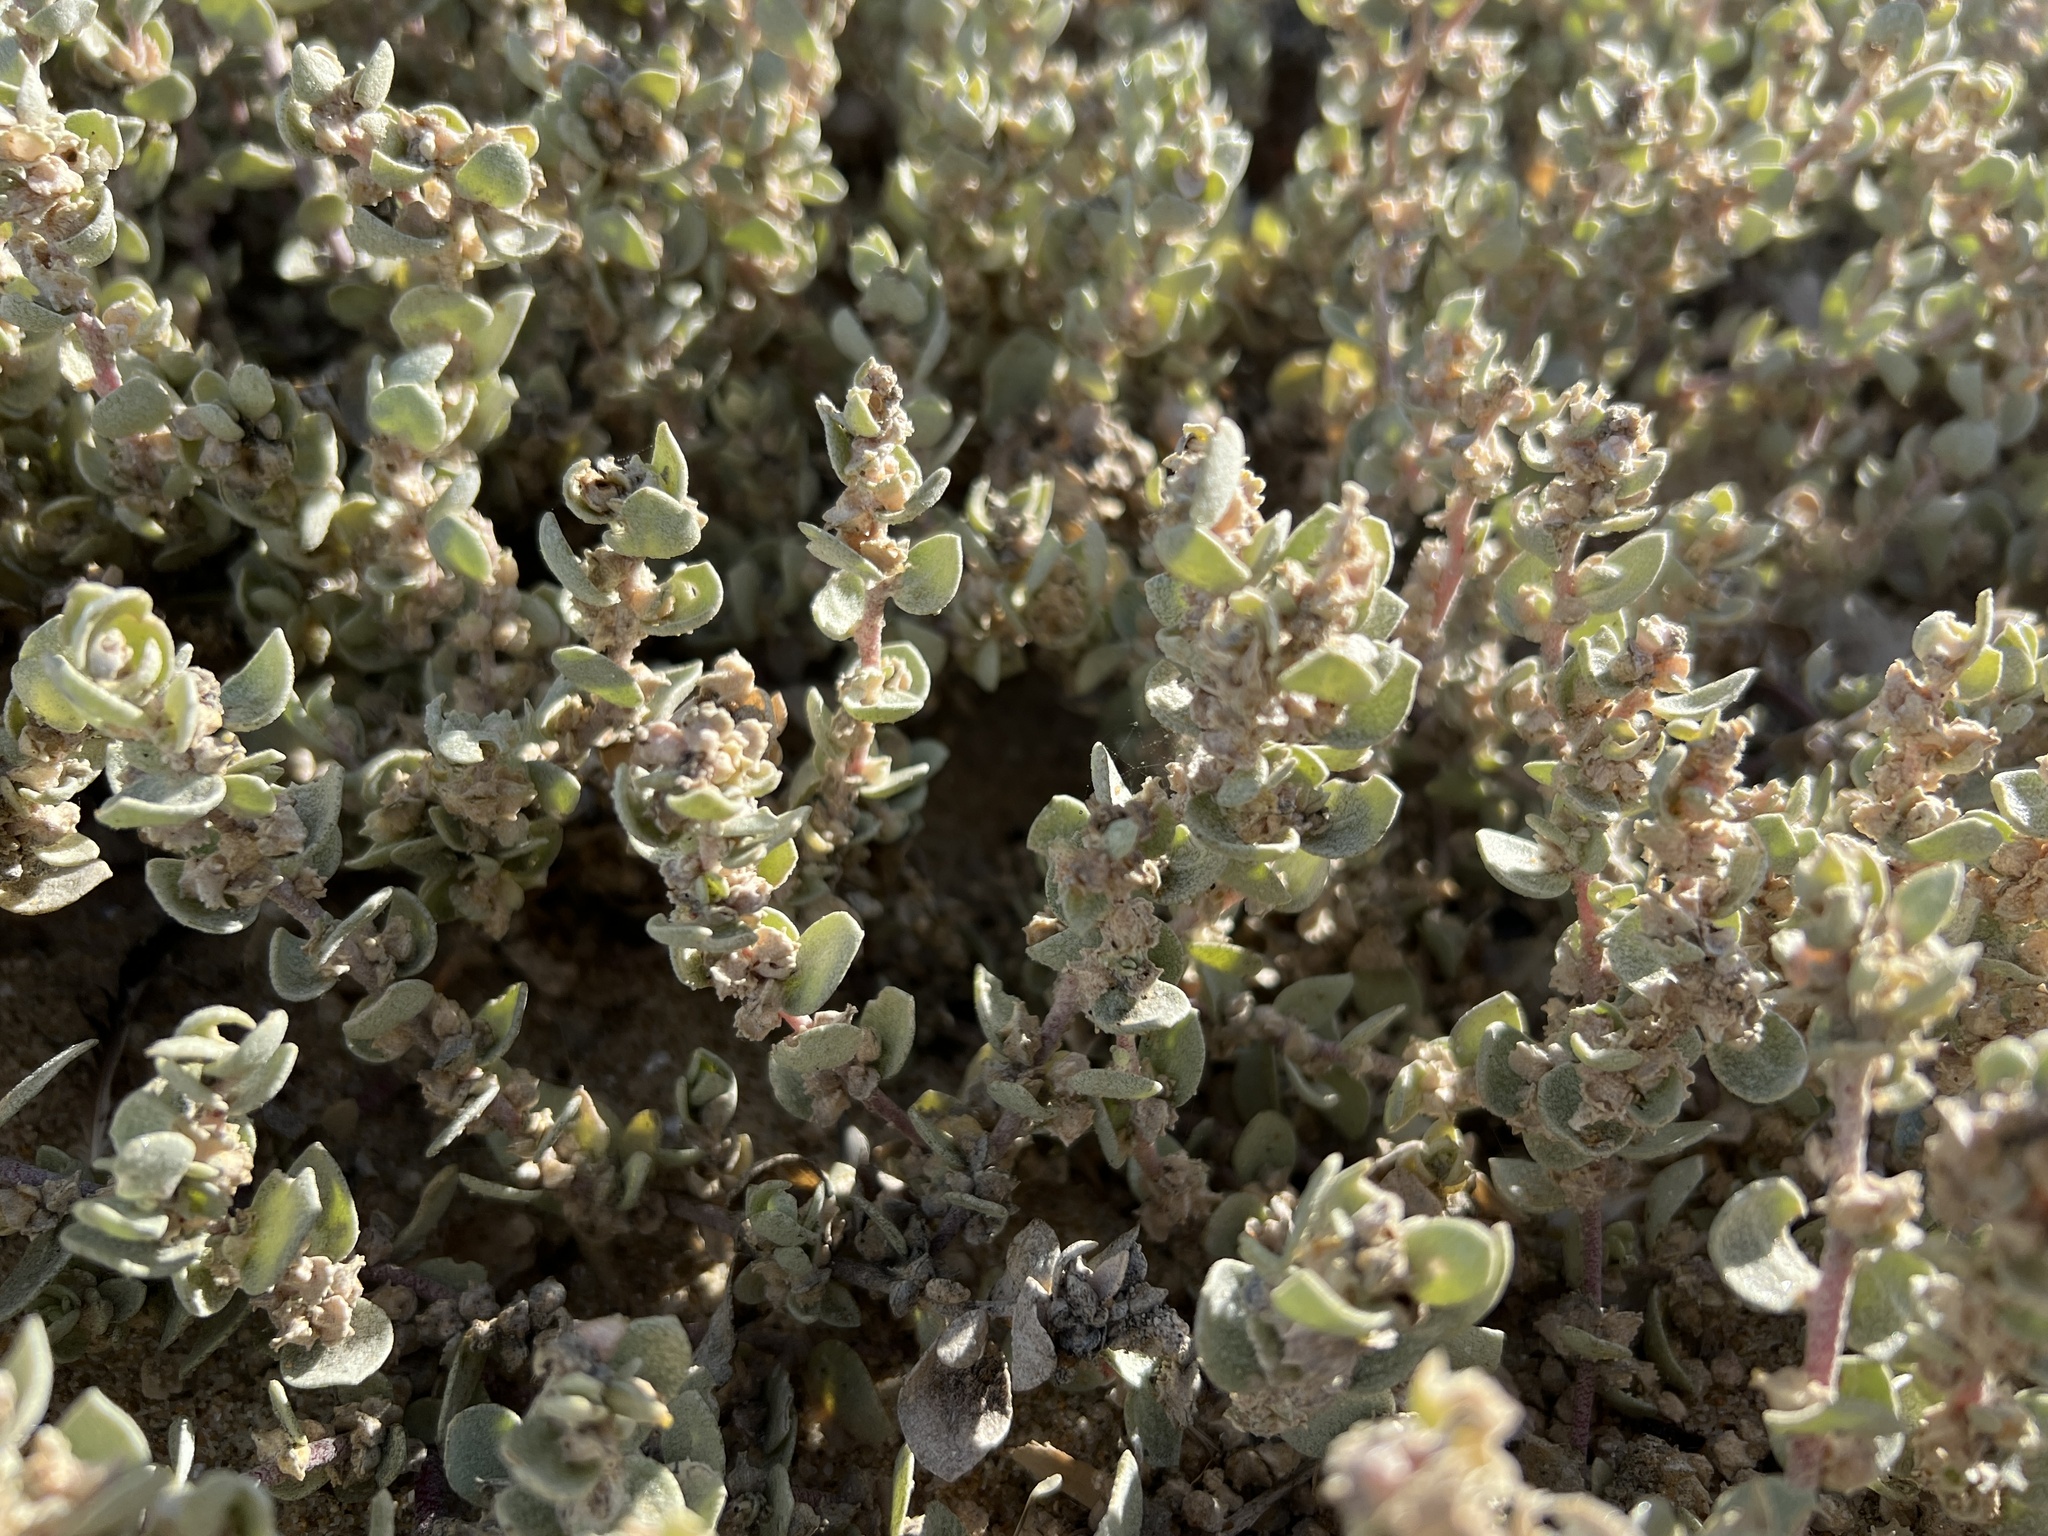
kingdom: Plantae
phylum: Tracheophyta
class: Magnoliopsida
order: Caryophyllales
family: Amaranthaceae
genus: Atriplex
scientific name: Atriplex leucophylla
